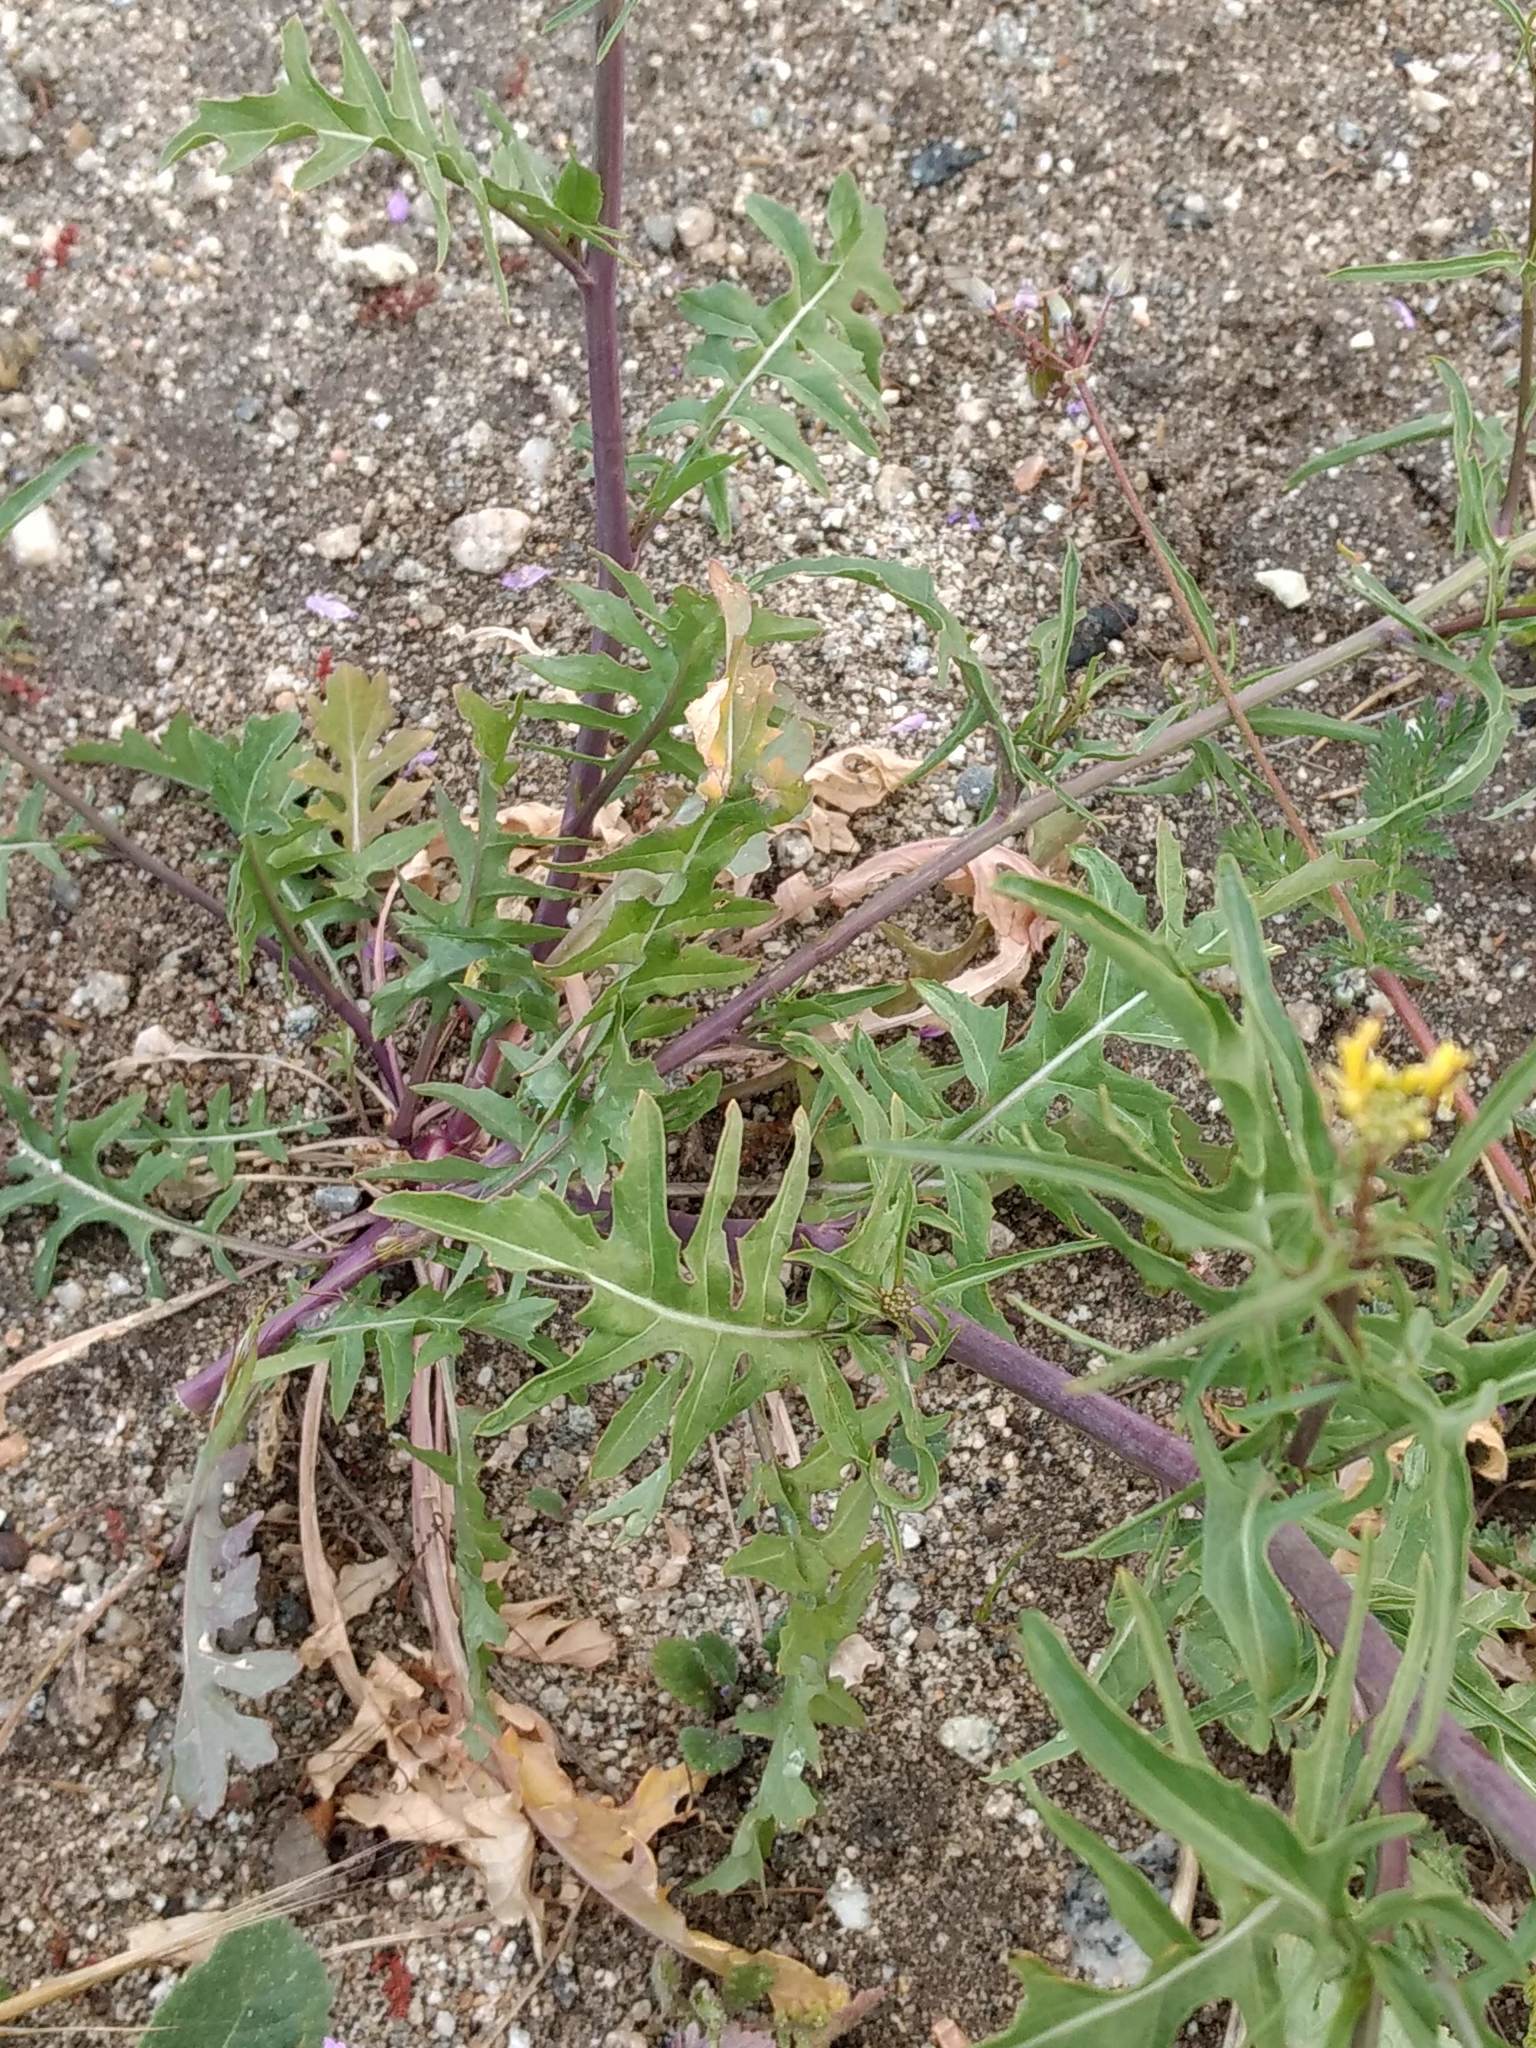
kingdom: Plantae
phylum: Tracheophyta
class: Magnoliopsida
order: Brassicales
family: Brassicaceae
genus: Sisymbrium
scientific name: Sisymbrium irio
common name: London rocket
